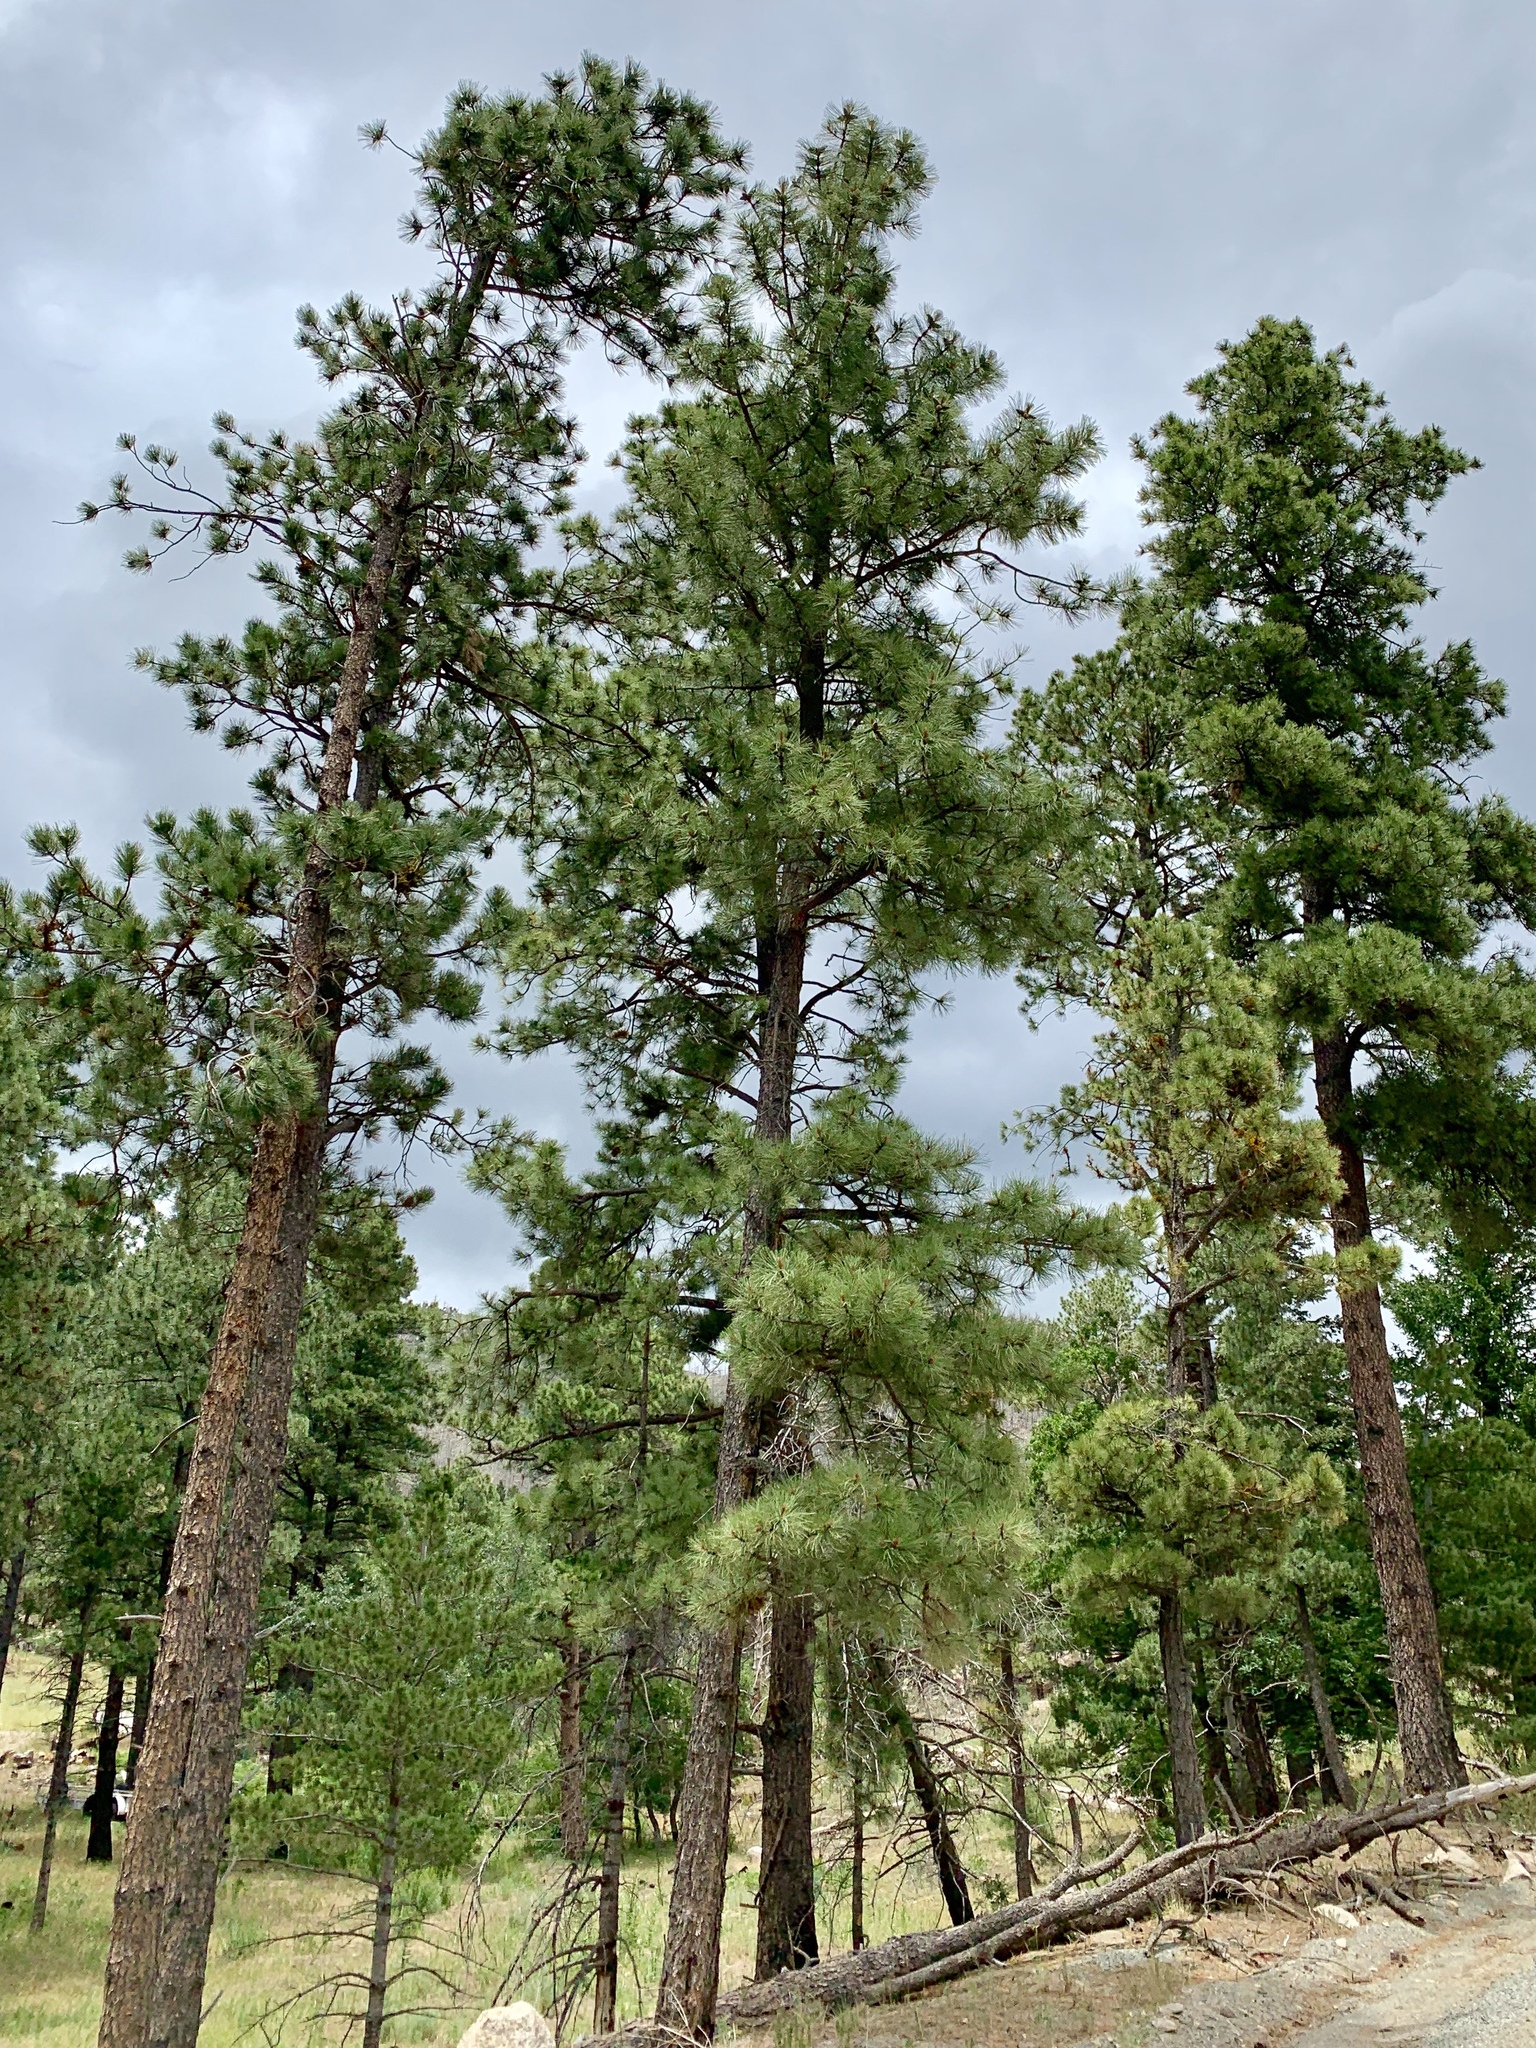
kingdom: Plantae
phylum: Tracheophyta
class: Pinopsida
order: Pinales
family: Pinaceae
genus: Pinus
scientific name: Pinus ponderosa
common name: Western yellow-pine
